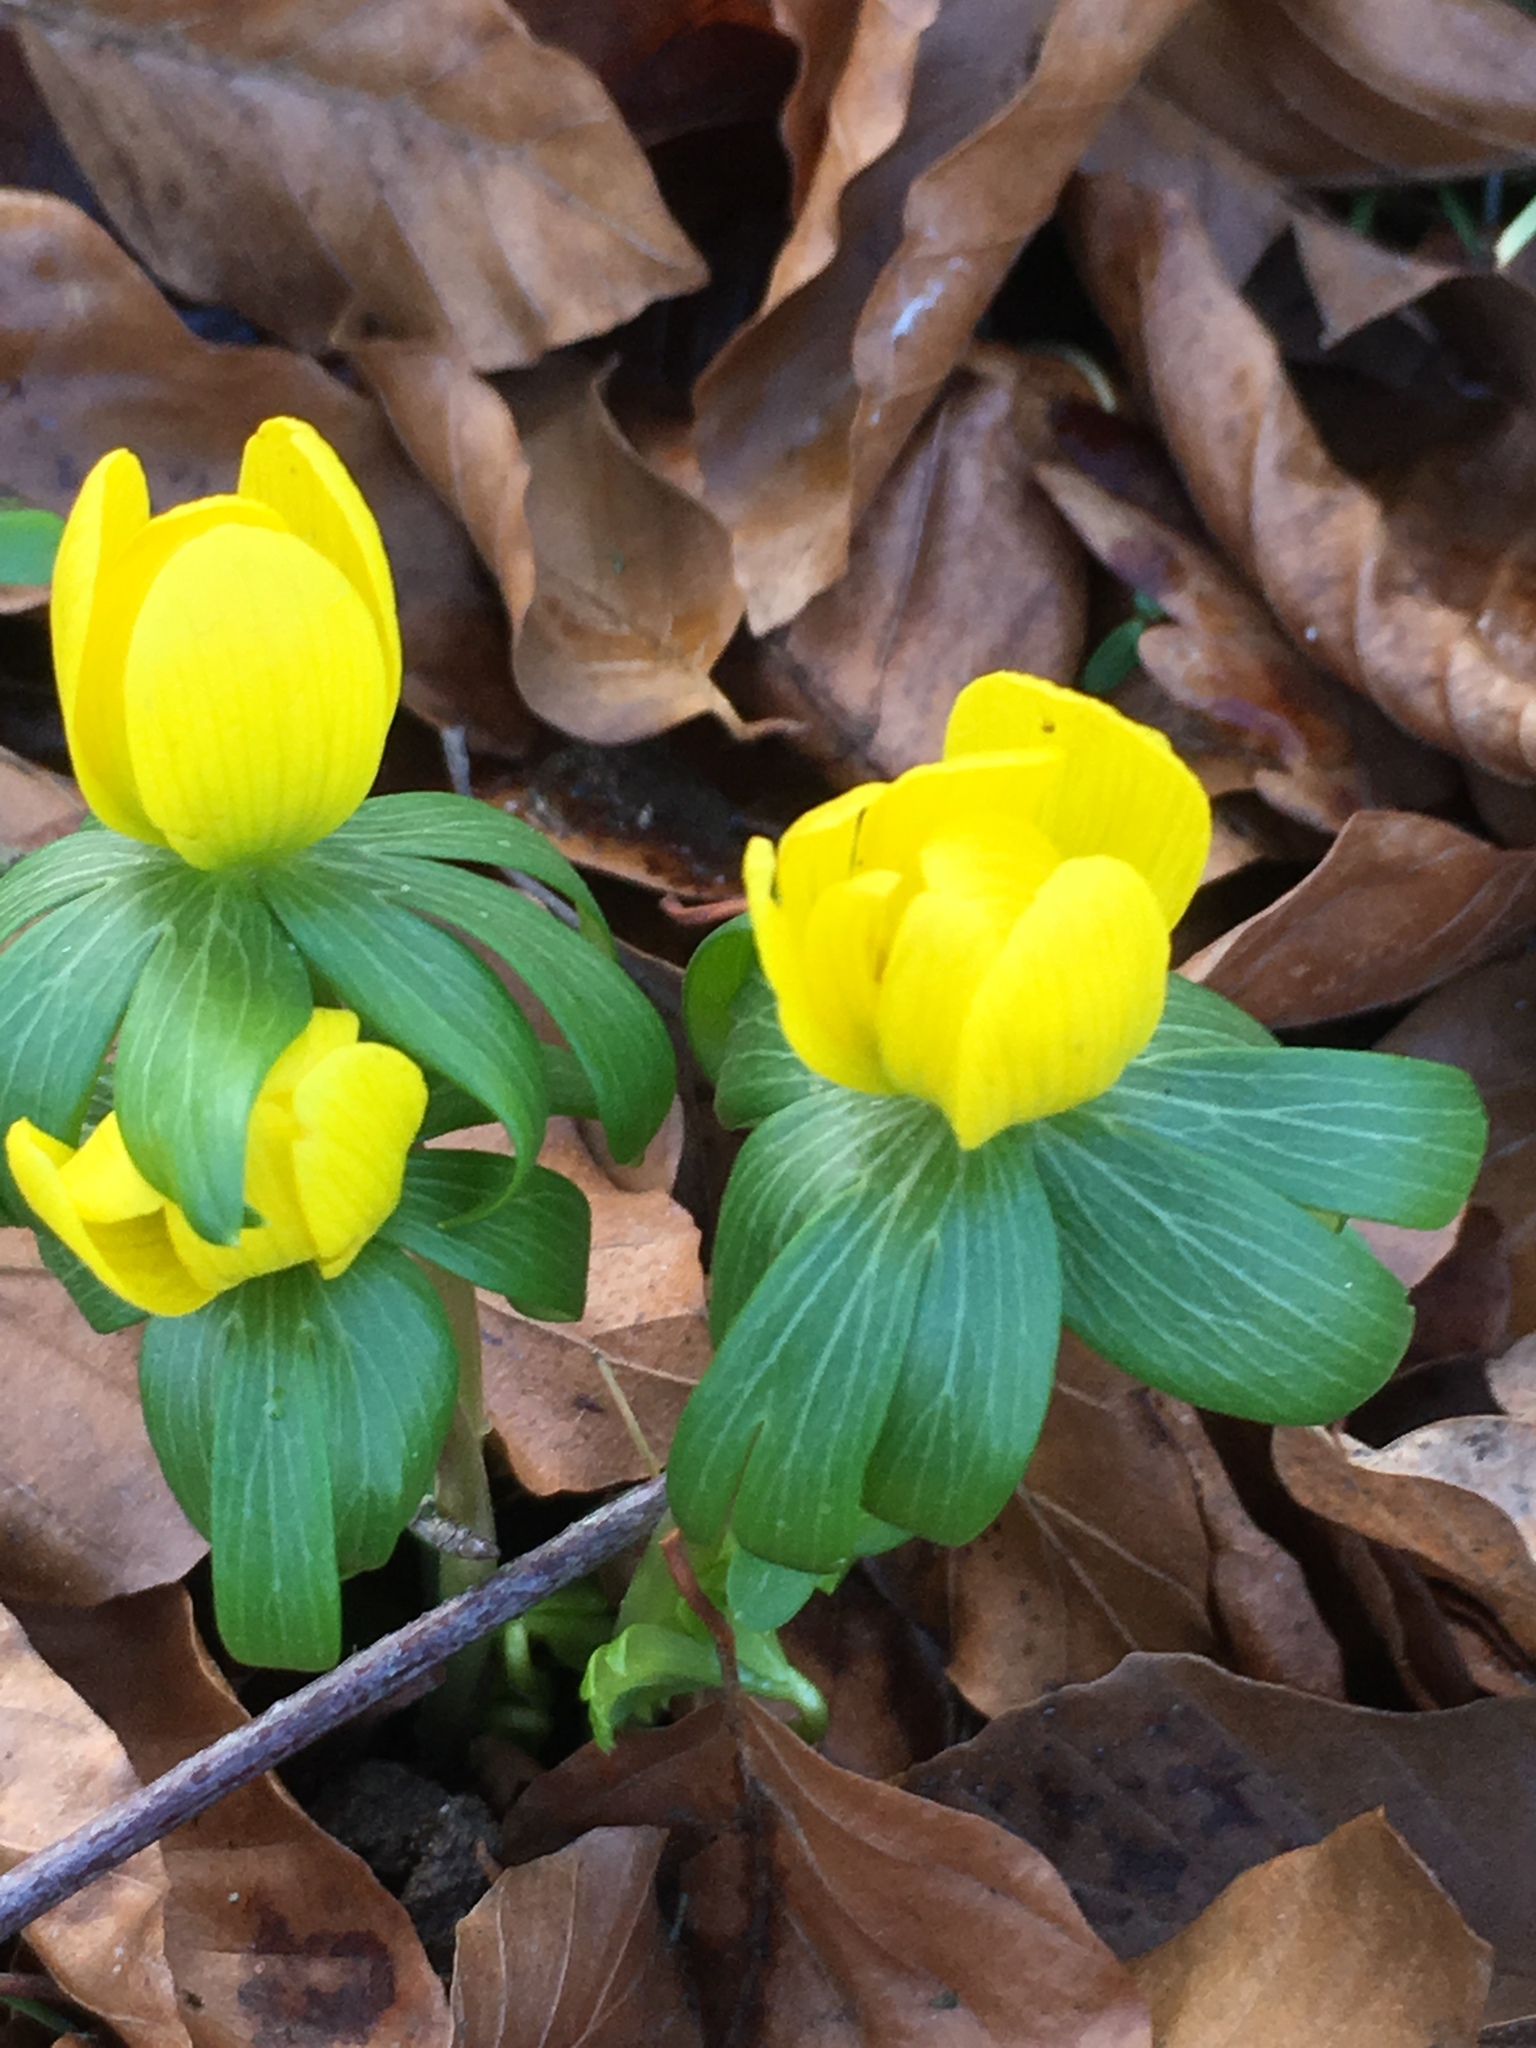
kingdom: Plantae
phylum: Tracheophyta
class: Magnoliopsida
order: Ranunculales
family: Ranunculaceae
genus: Eranthis
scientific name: Eranthis hyemalis
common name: Winter aconite
